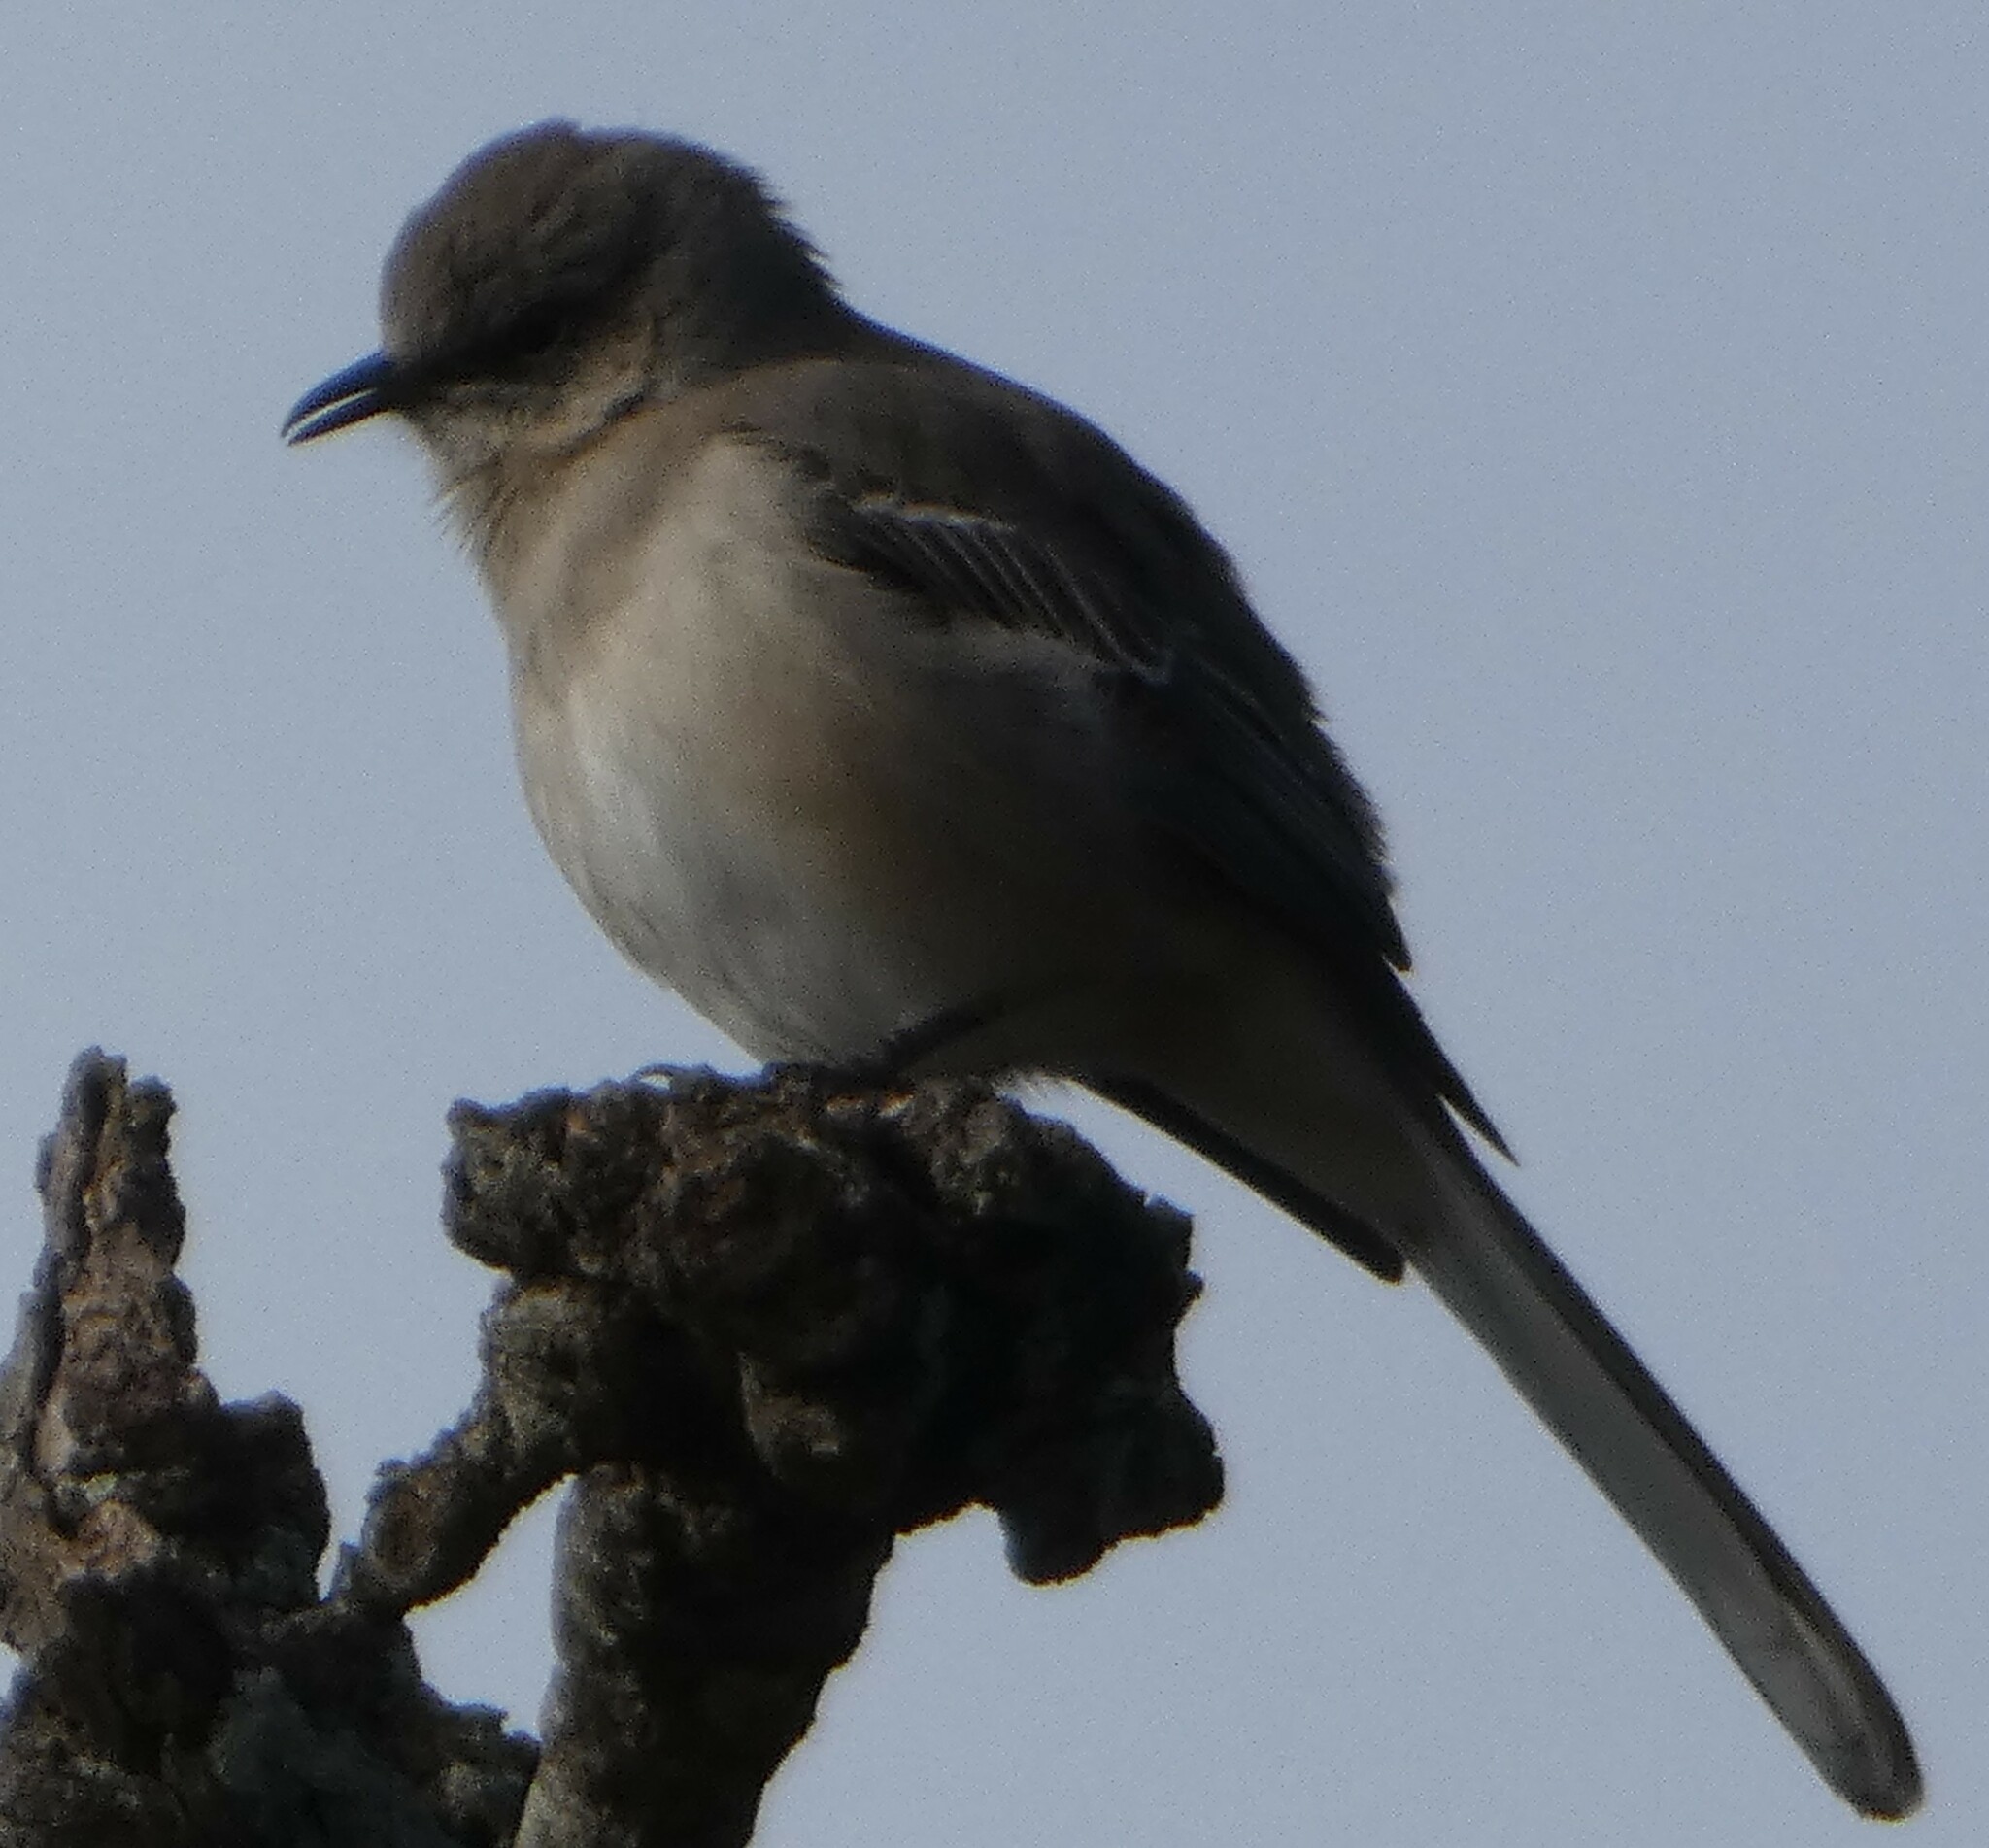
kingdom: Animalia
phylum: Chordata
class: Aves
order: Passeriformes
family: Mimidae
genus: Mimus
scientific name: Mimus polyglottos
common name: Northern mockingbird
